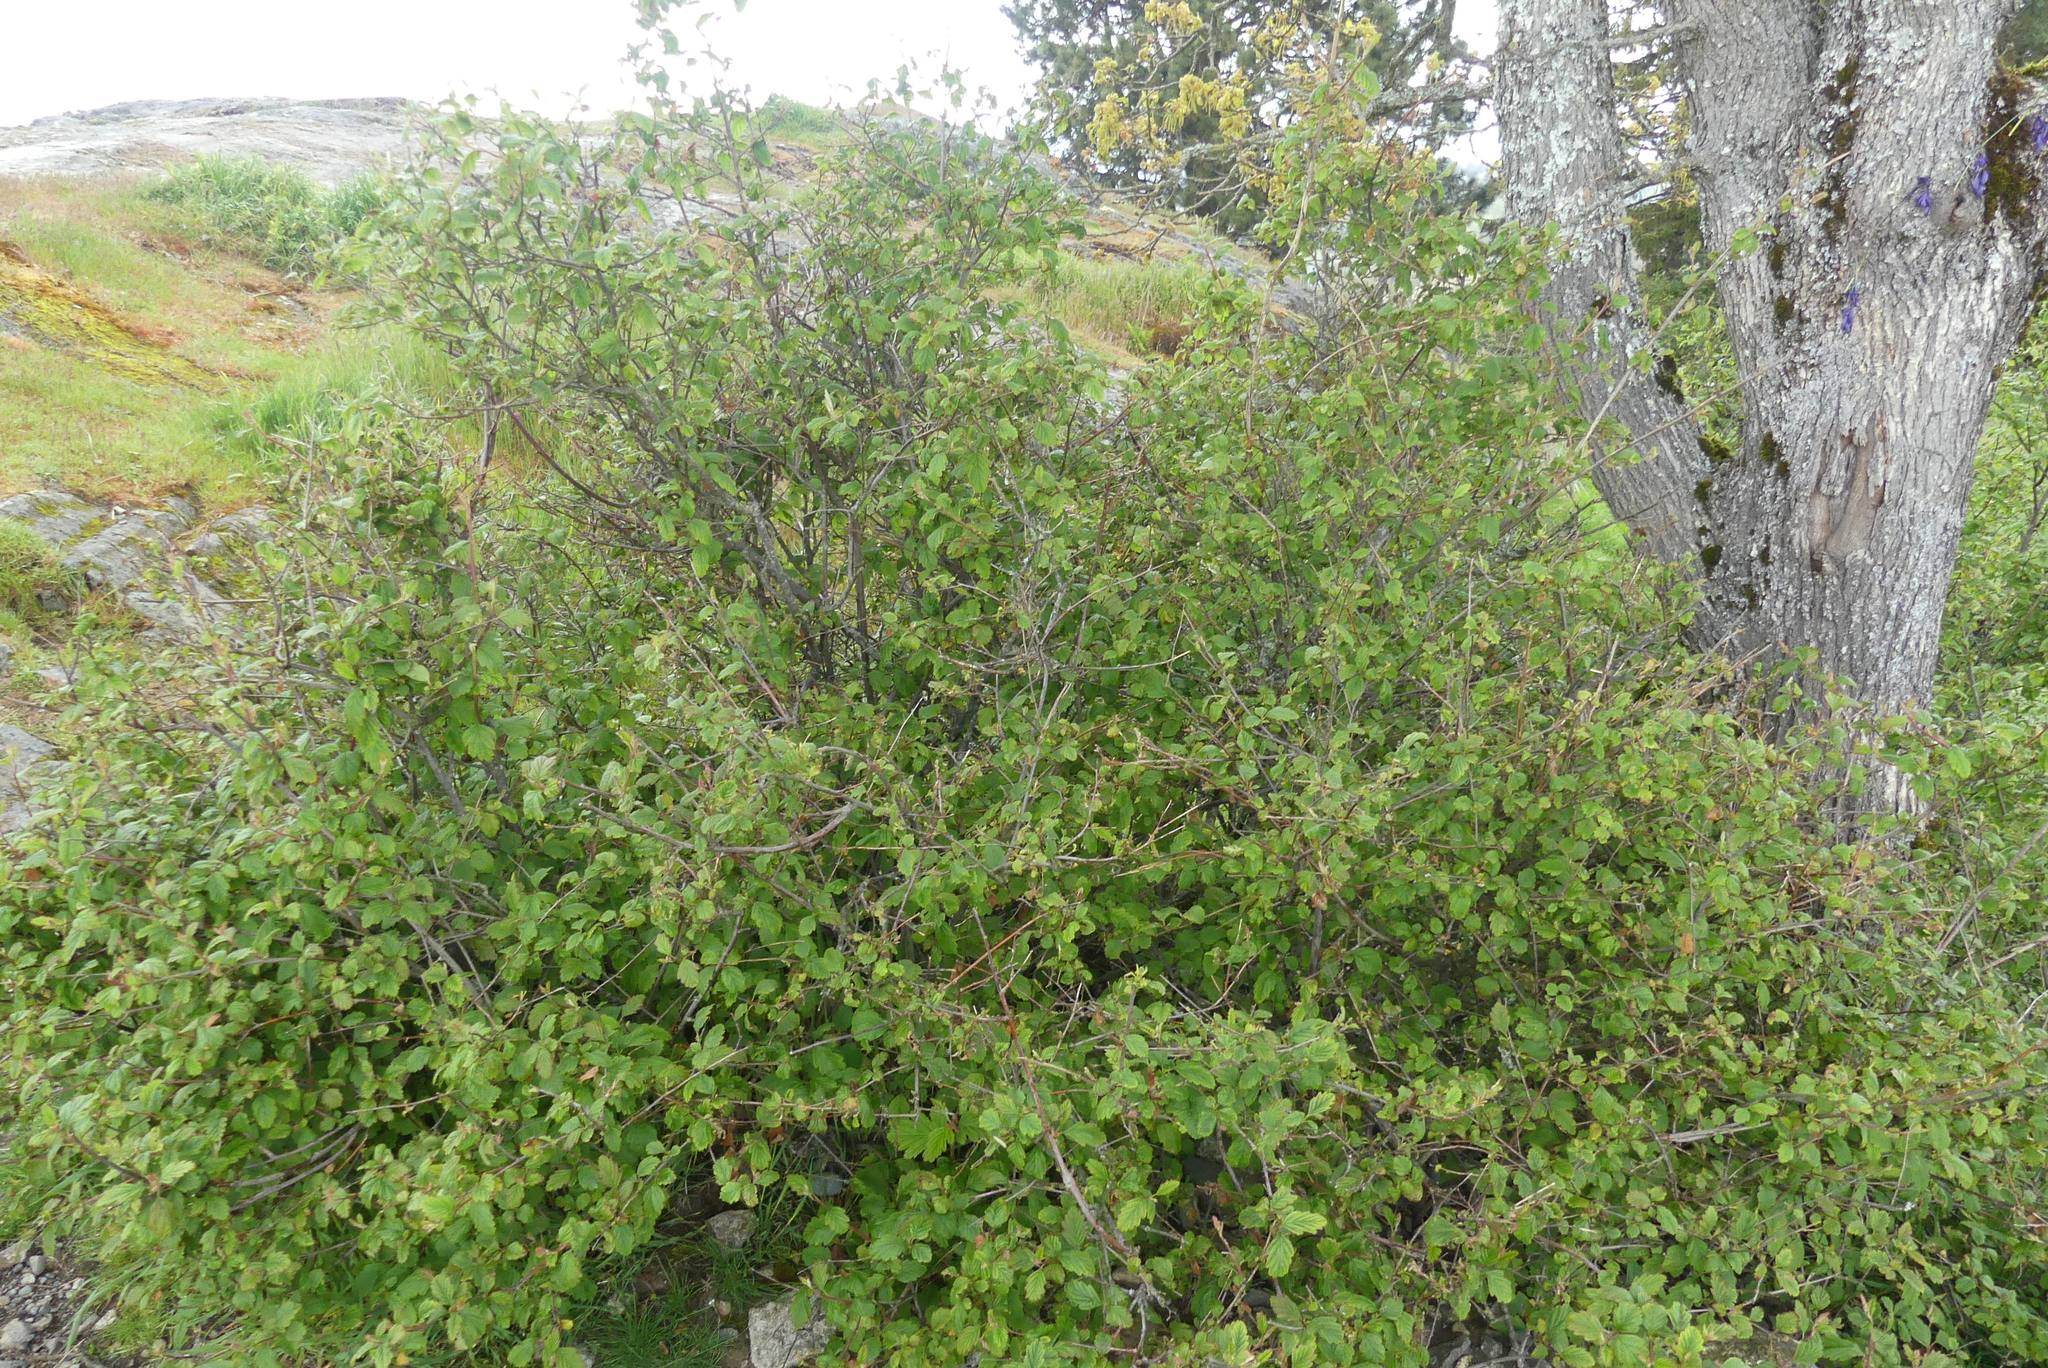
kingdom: Plantae
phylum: Tracheophyta
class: Magnoliopsida
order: Rosales
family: Rosaceae
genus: Holodiscus
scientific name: Holodiscus discolor
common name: Oceanspray
